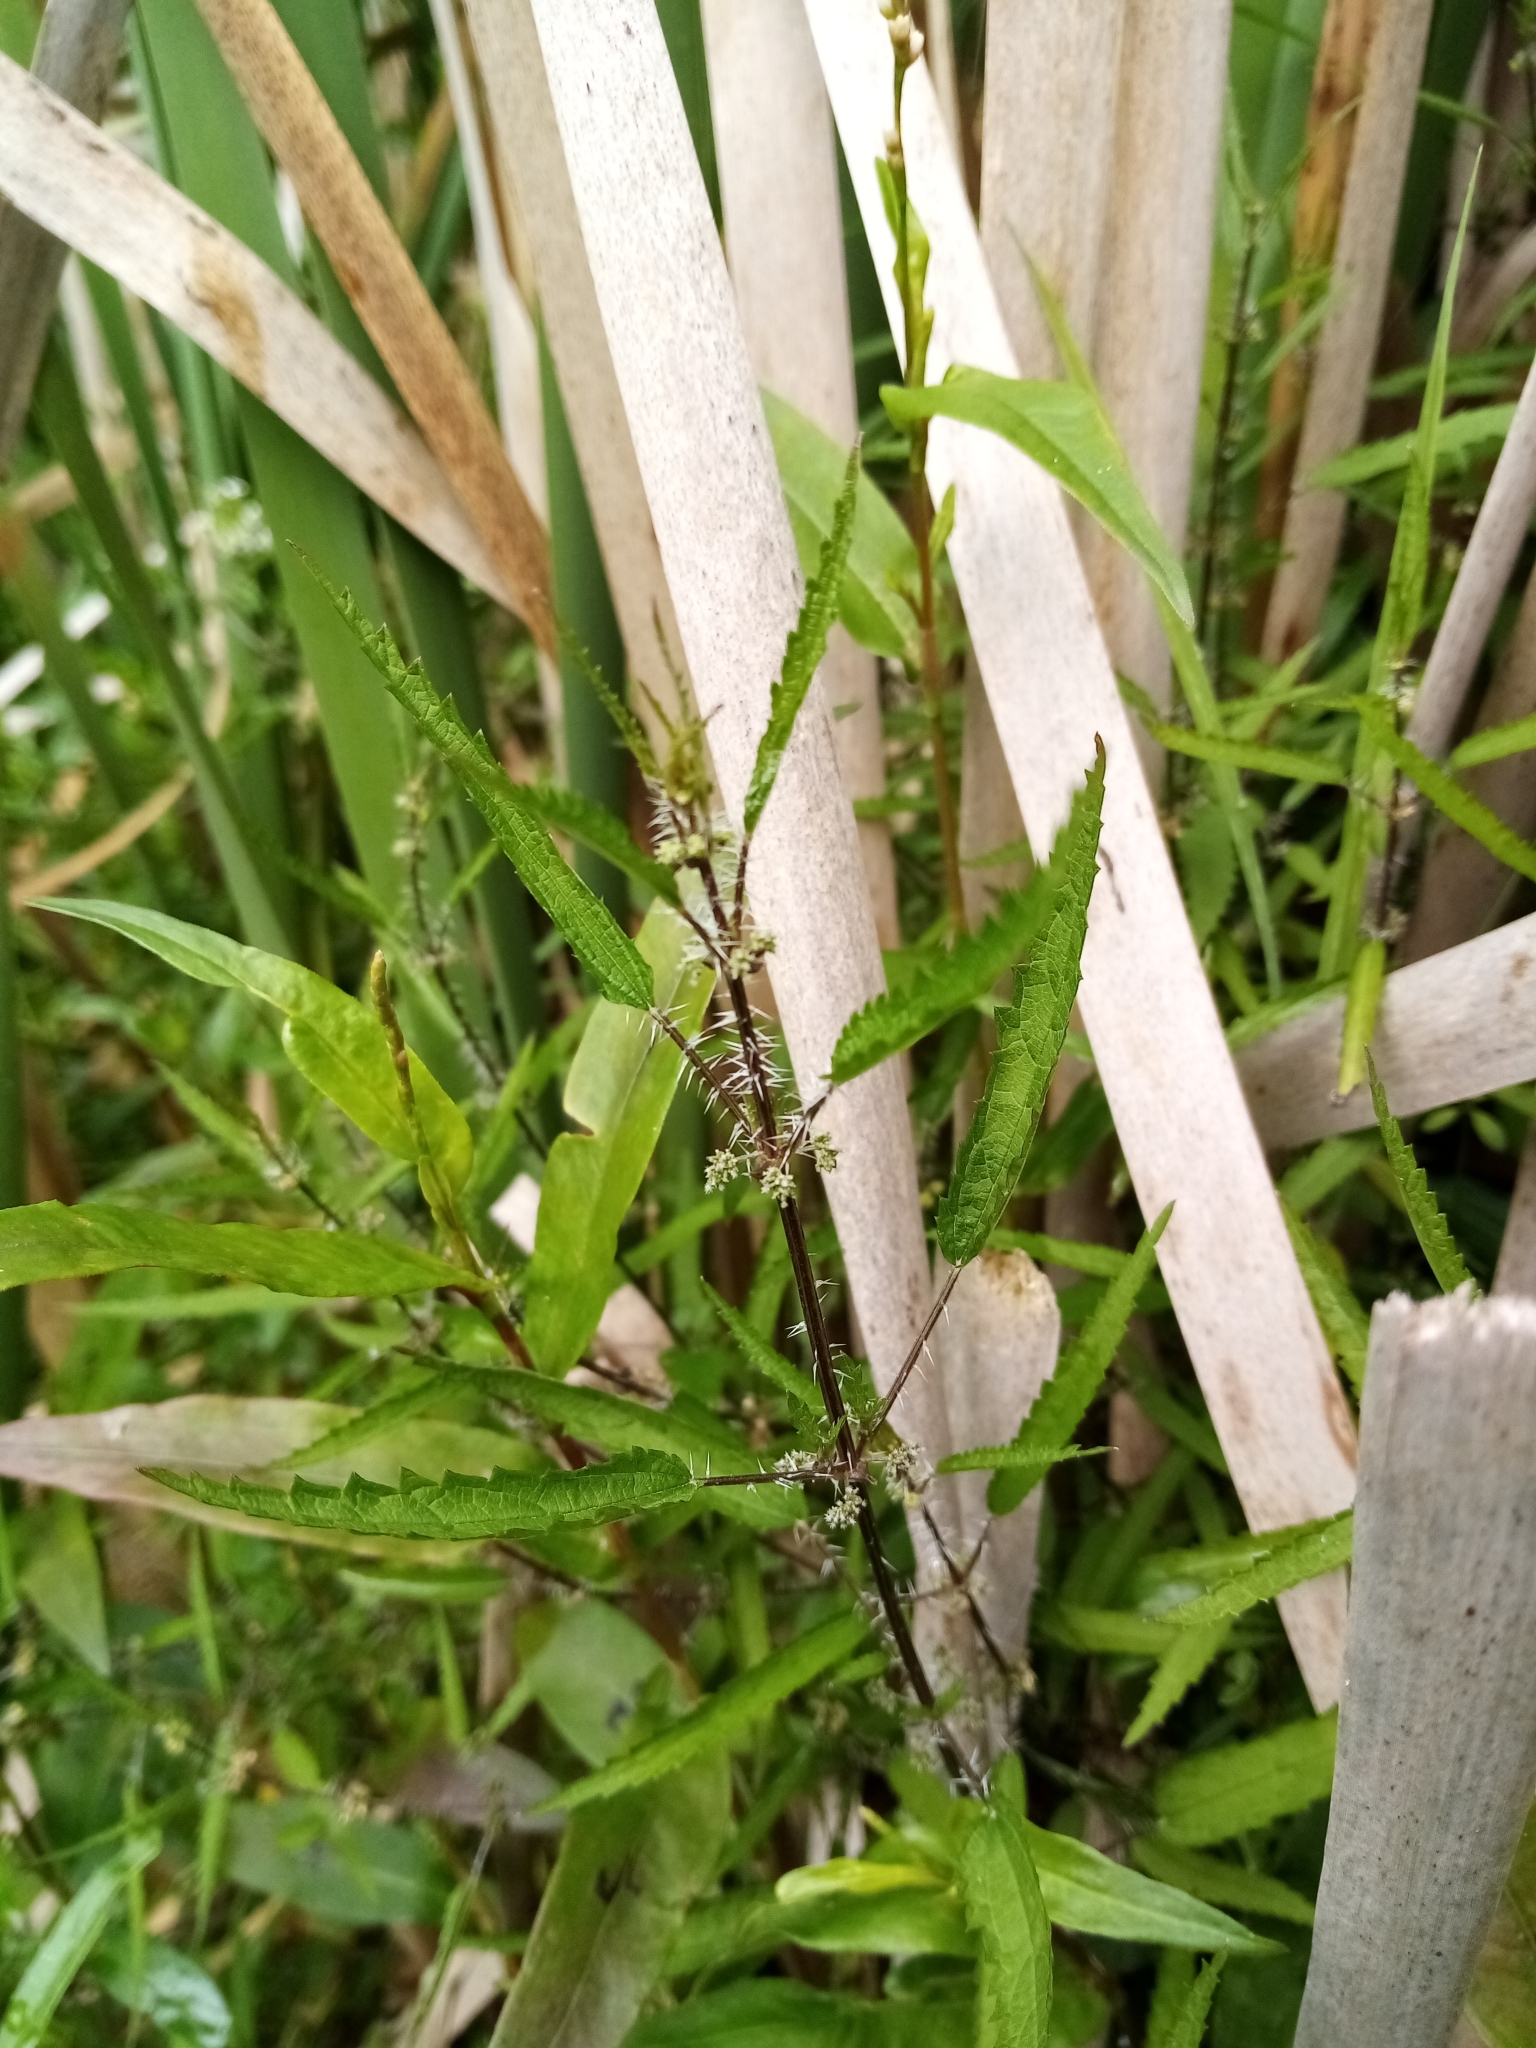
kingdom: Plantae
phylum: Tracheophyta
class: Magnoliopsida
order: Rosales
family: Urticaceae
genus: Urtica
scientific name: Urtica perconfusa
